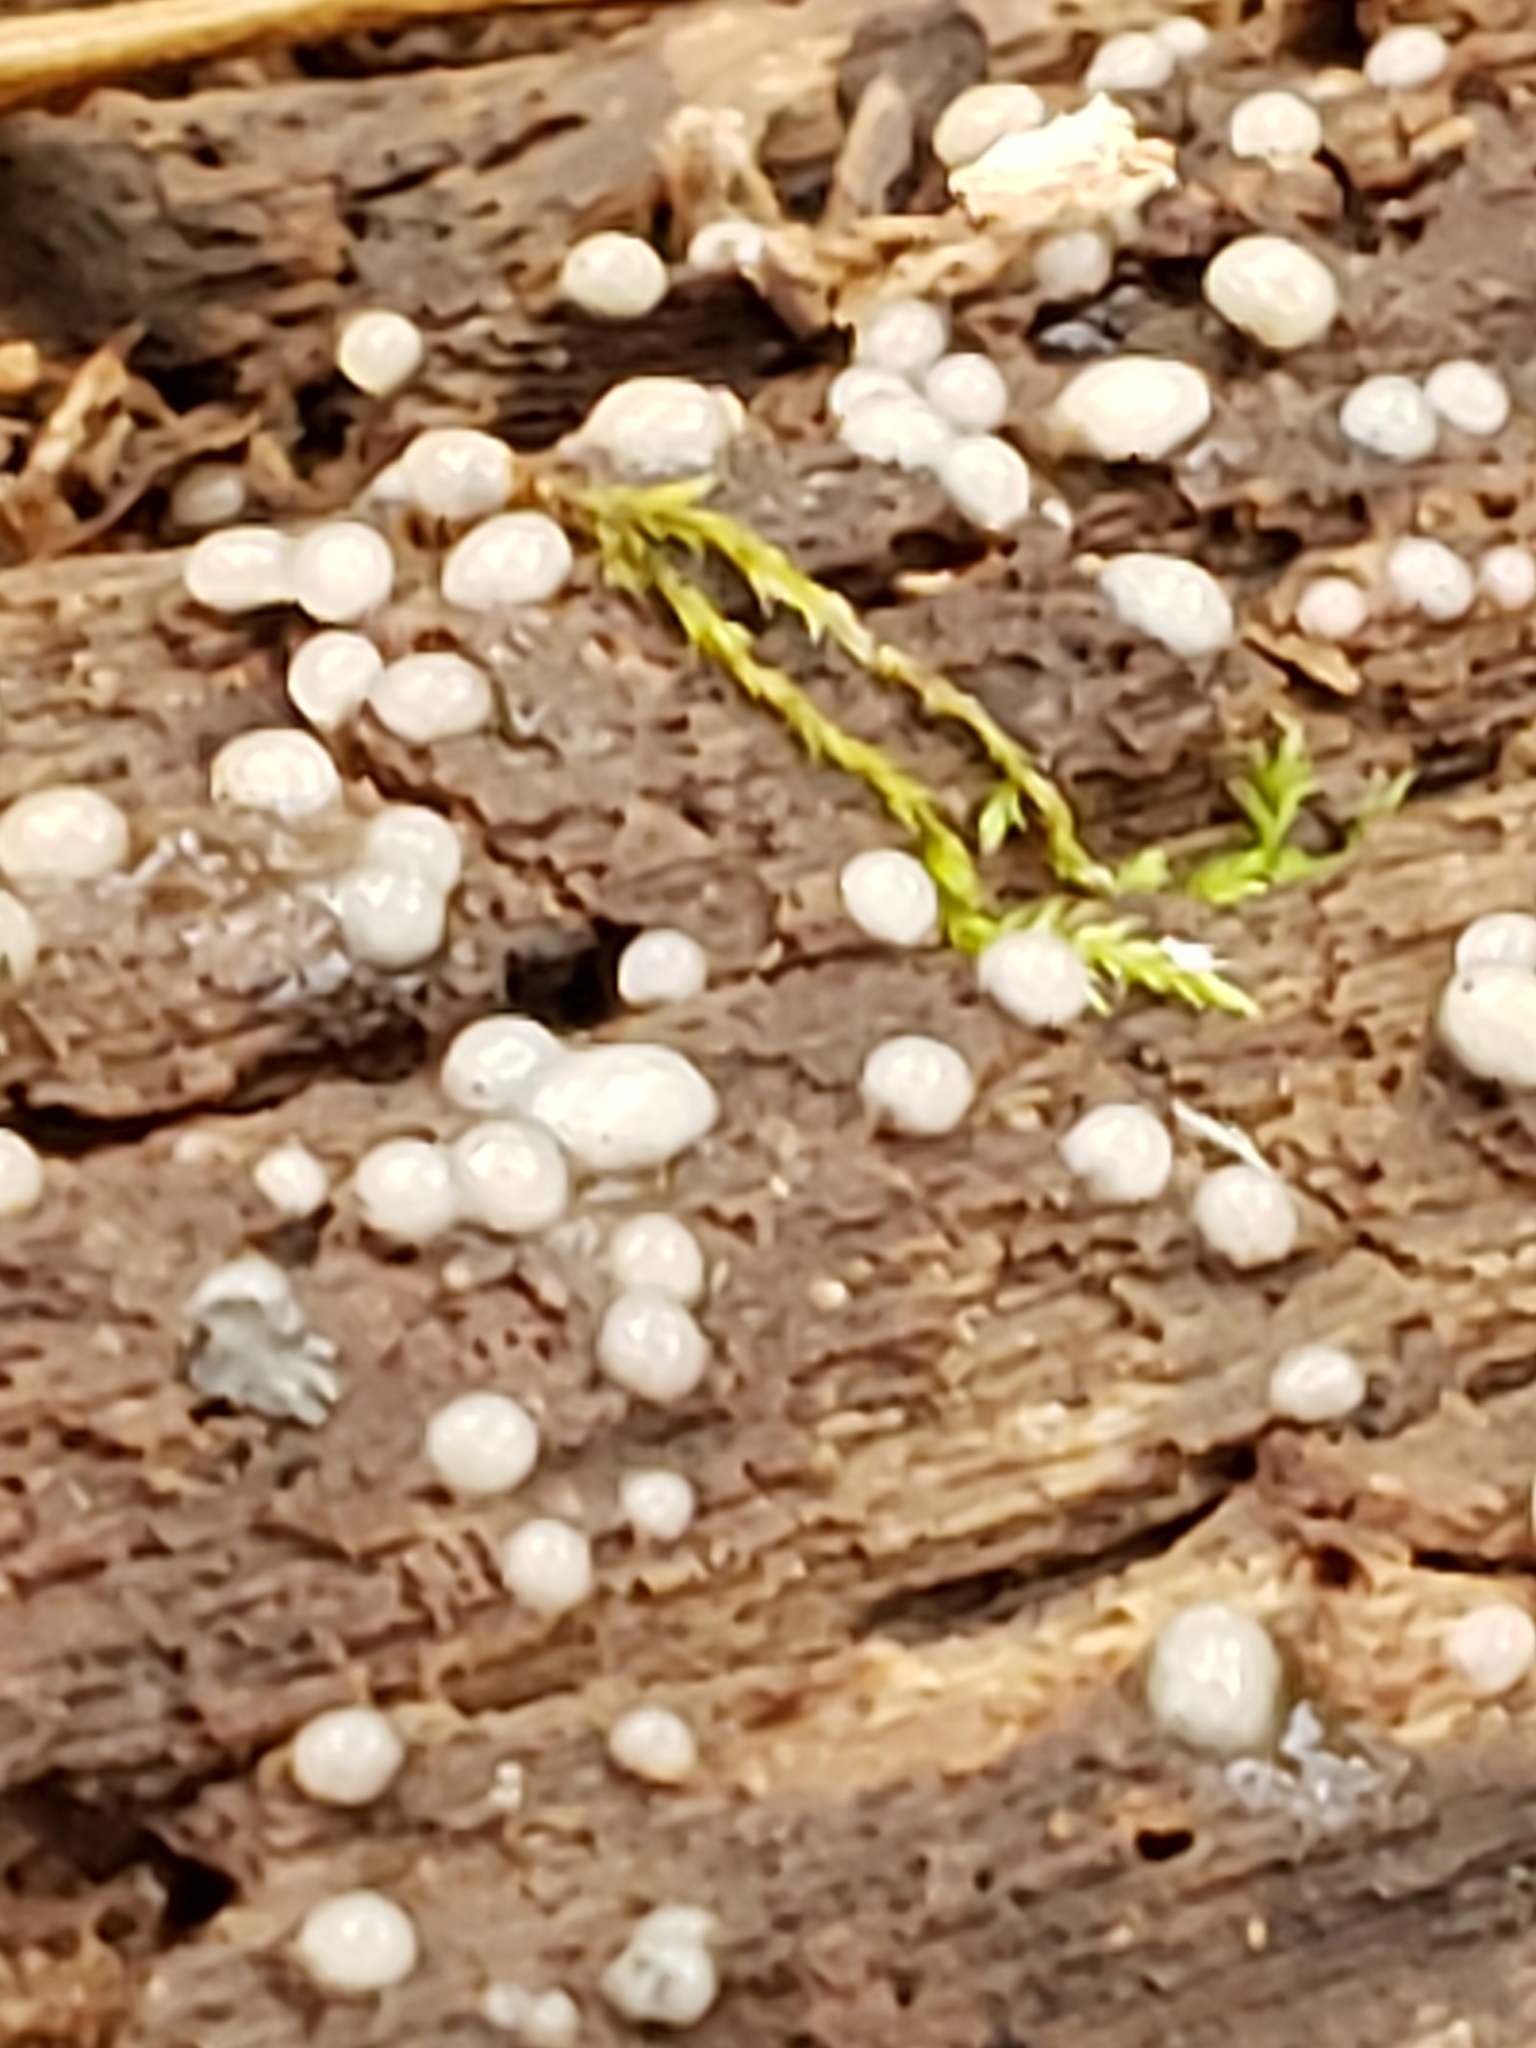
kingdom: Fungi
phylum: Basidiomycota
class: Atractiellomycetes
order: Atractiellales
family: Phleogenaceae
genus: Helicogloea
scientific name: Helicogloea compressa
